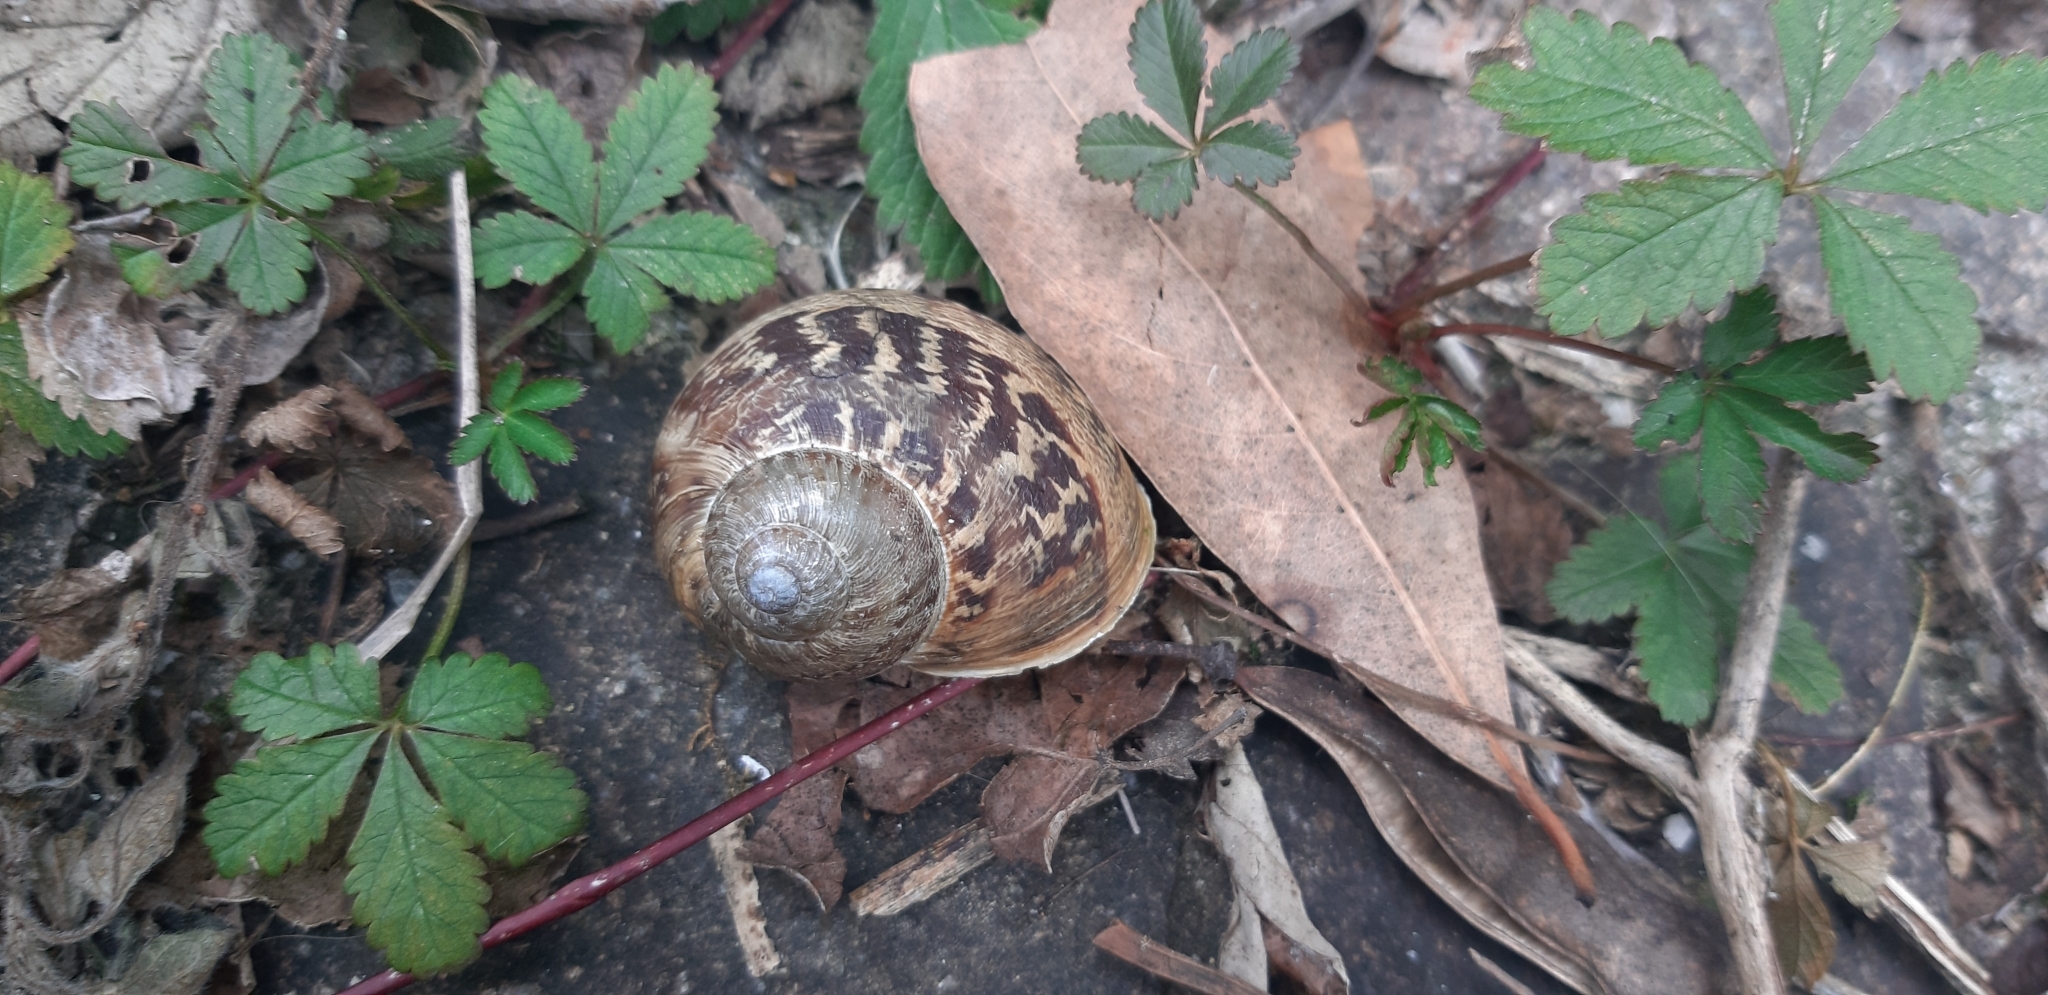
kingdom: Animalia
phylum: Mollusca
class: Gastropoda
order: Stylommatophora
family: Helicidae
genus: Cornu
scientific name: Cornu aspersum
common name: Brown garden snail
